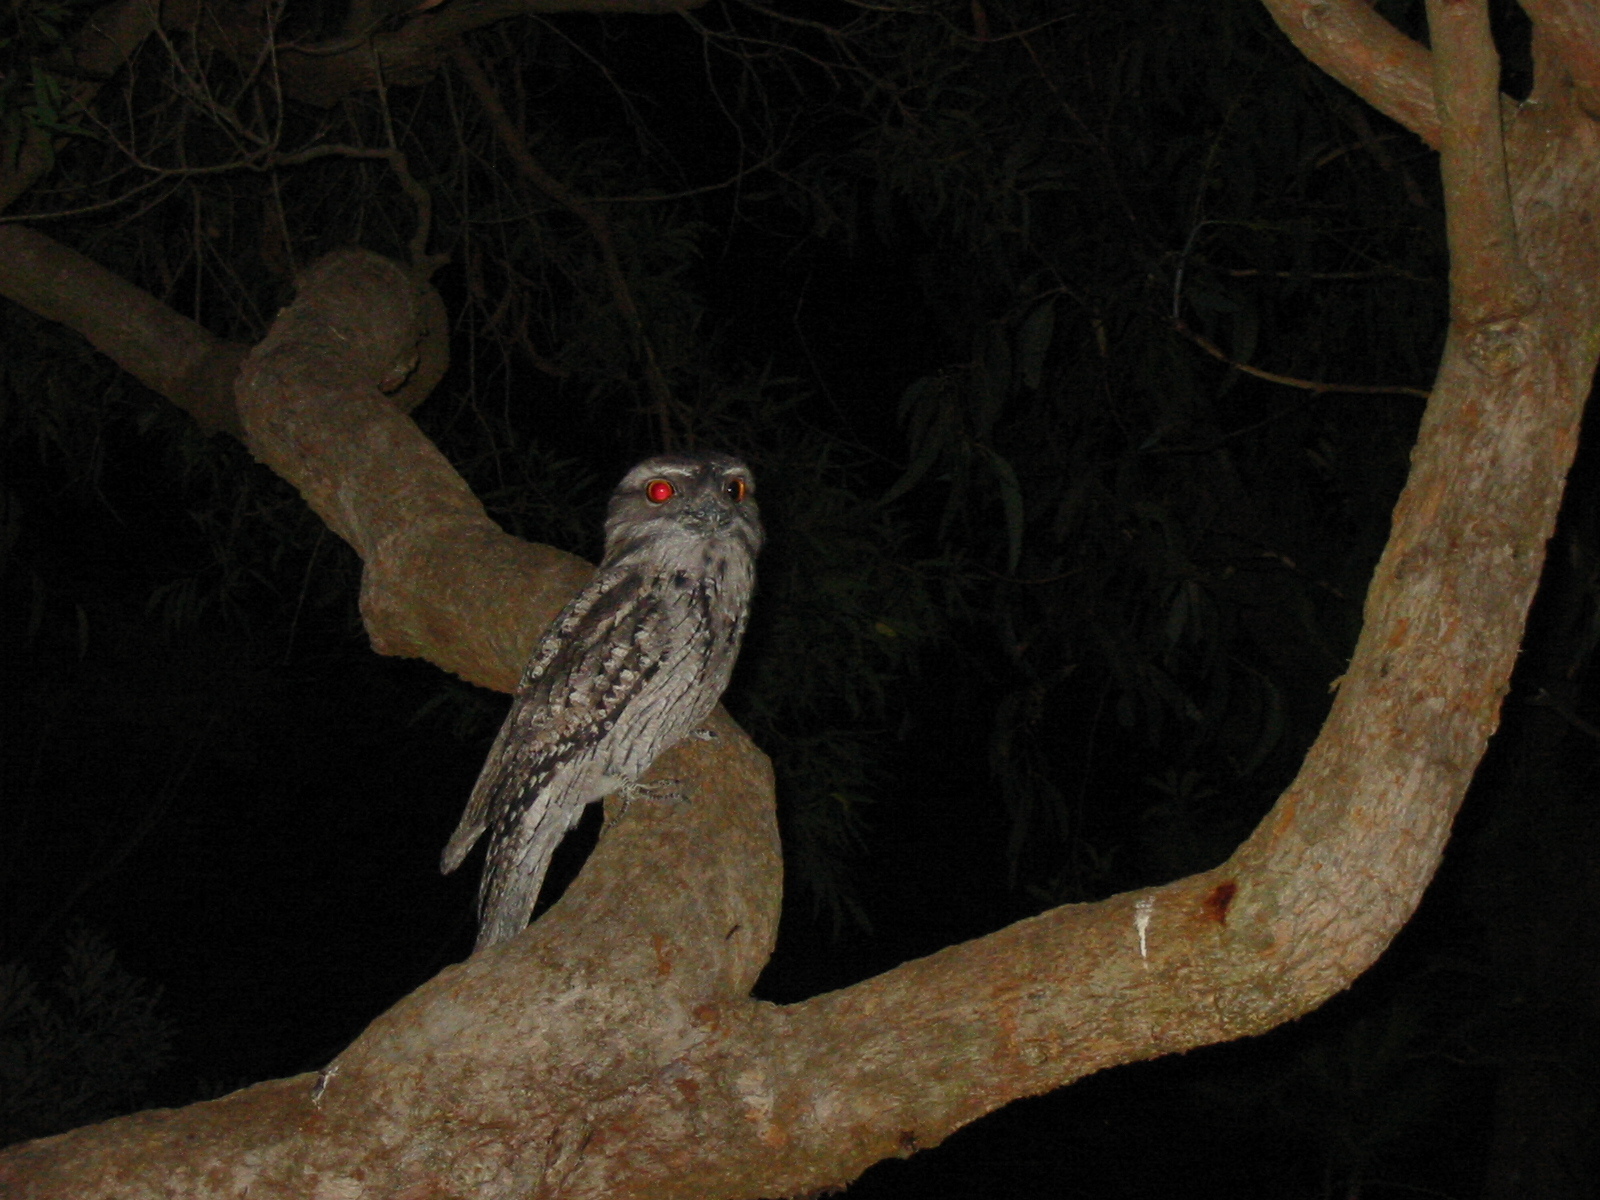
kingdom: Animalia
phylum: Chordata
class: Aves
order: Caprimulgiformes
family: Podargidae
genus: Podargus
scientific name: Podargus strigoides
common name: Tawny frogmouth
